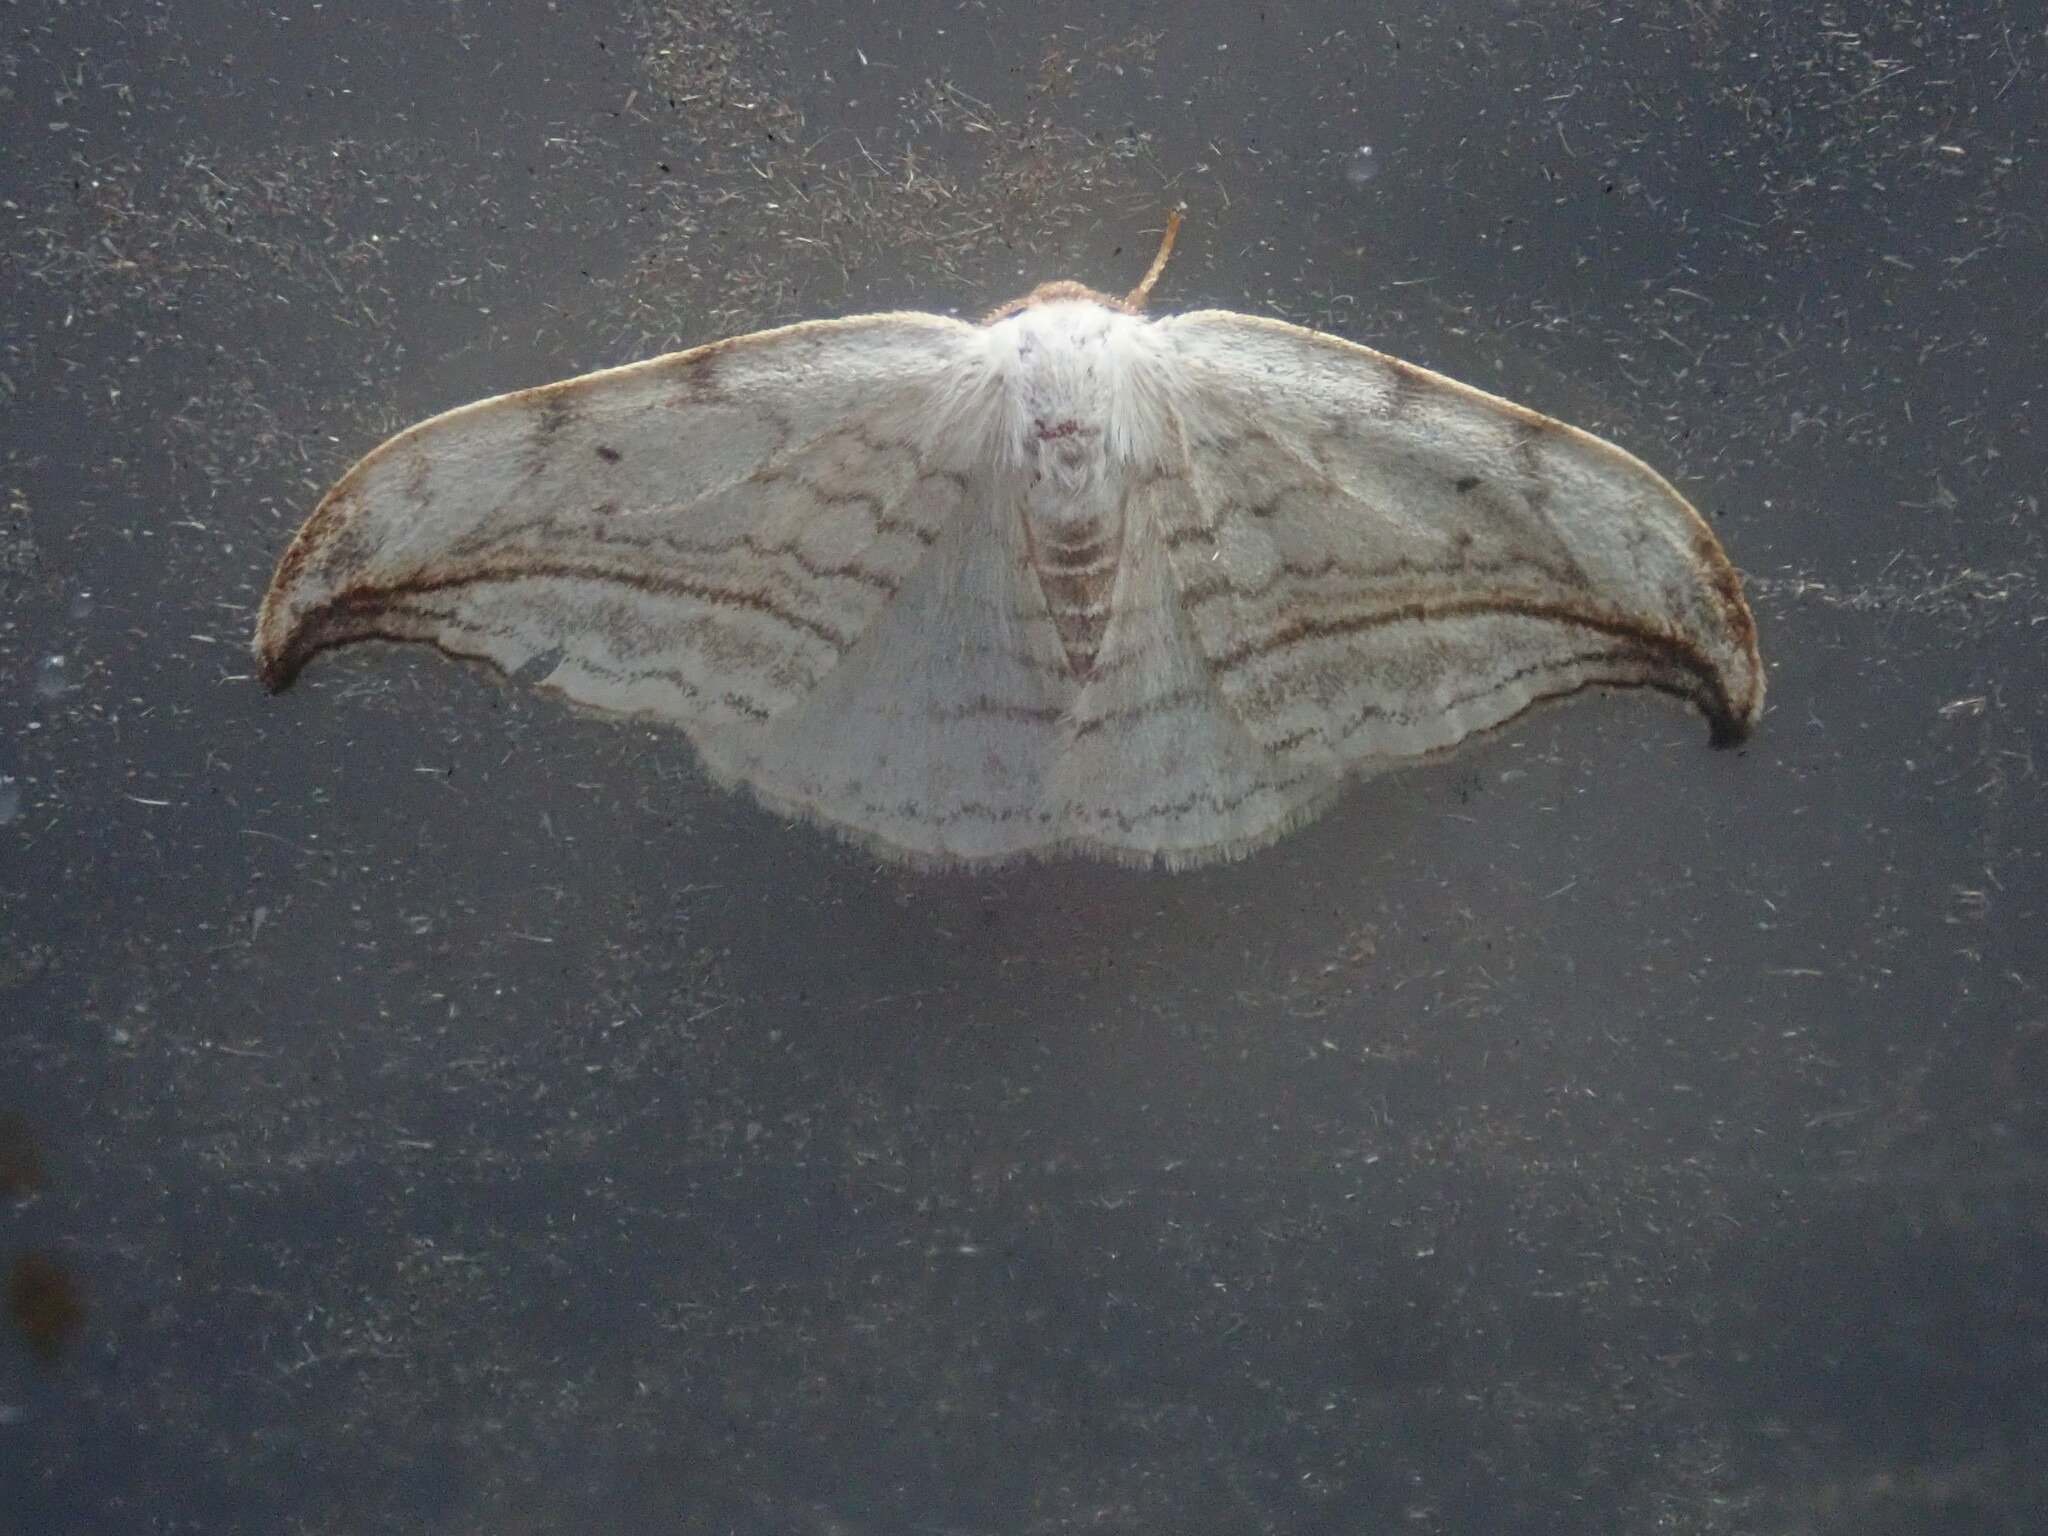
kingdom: Animalia
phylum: Arthropoda
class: Insecta
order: Lepidoptera
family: Drepanidae
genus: Drepana
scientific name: Drepana arcuata
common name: Arched hooktip moth
